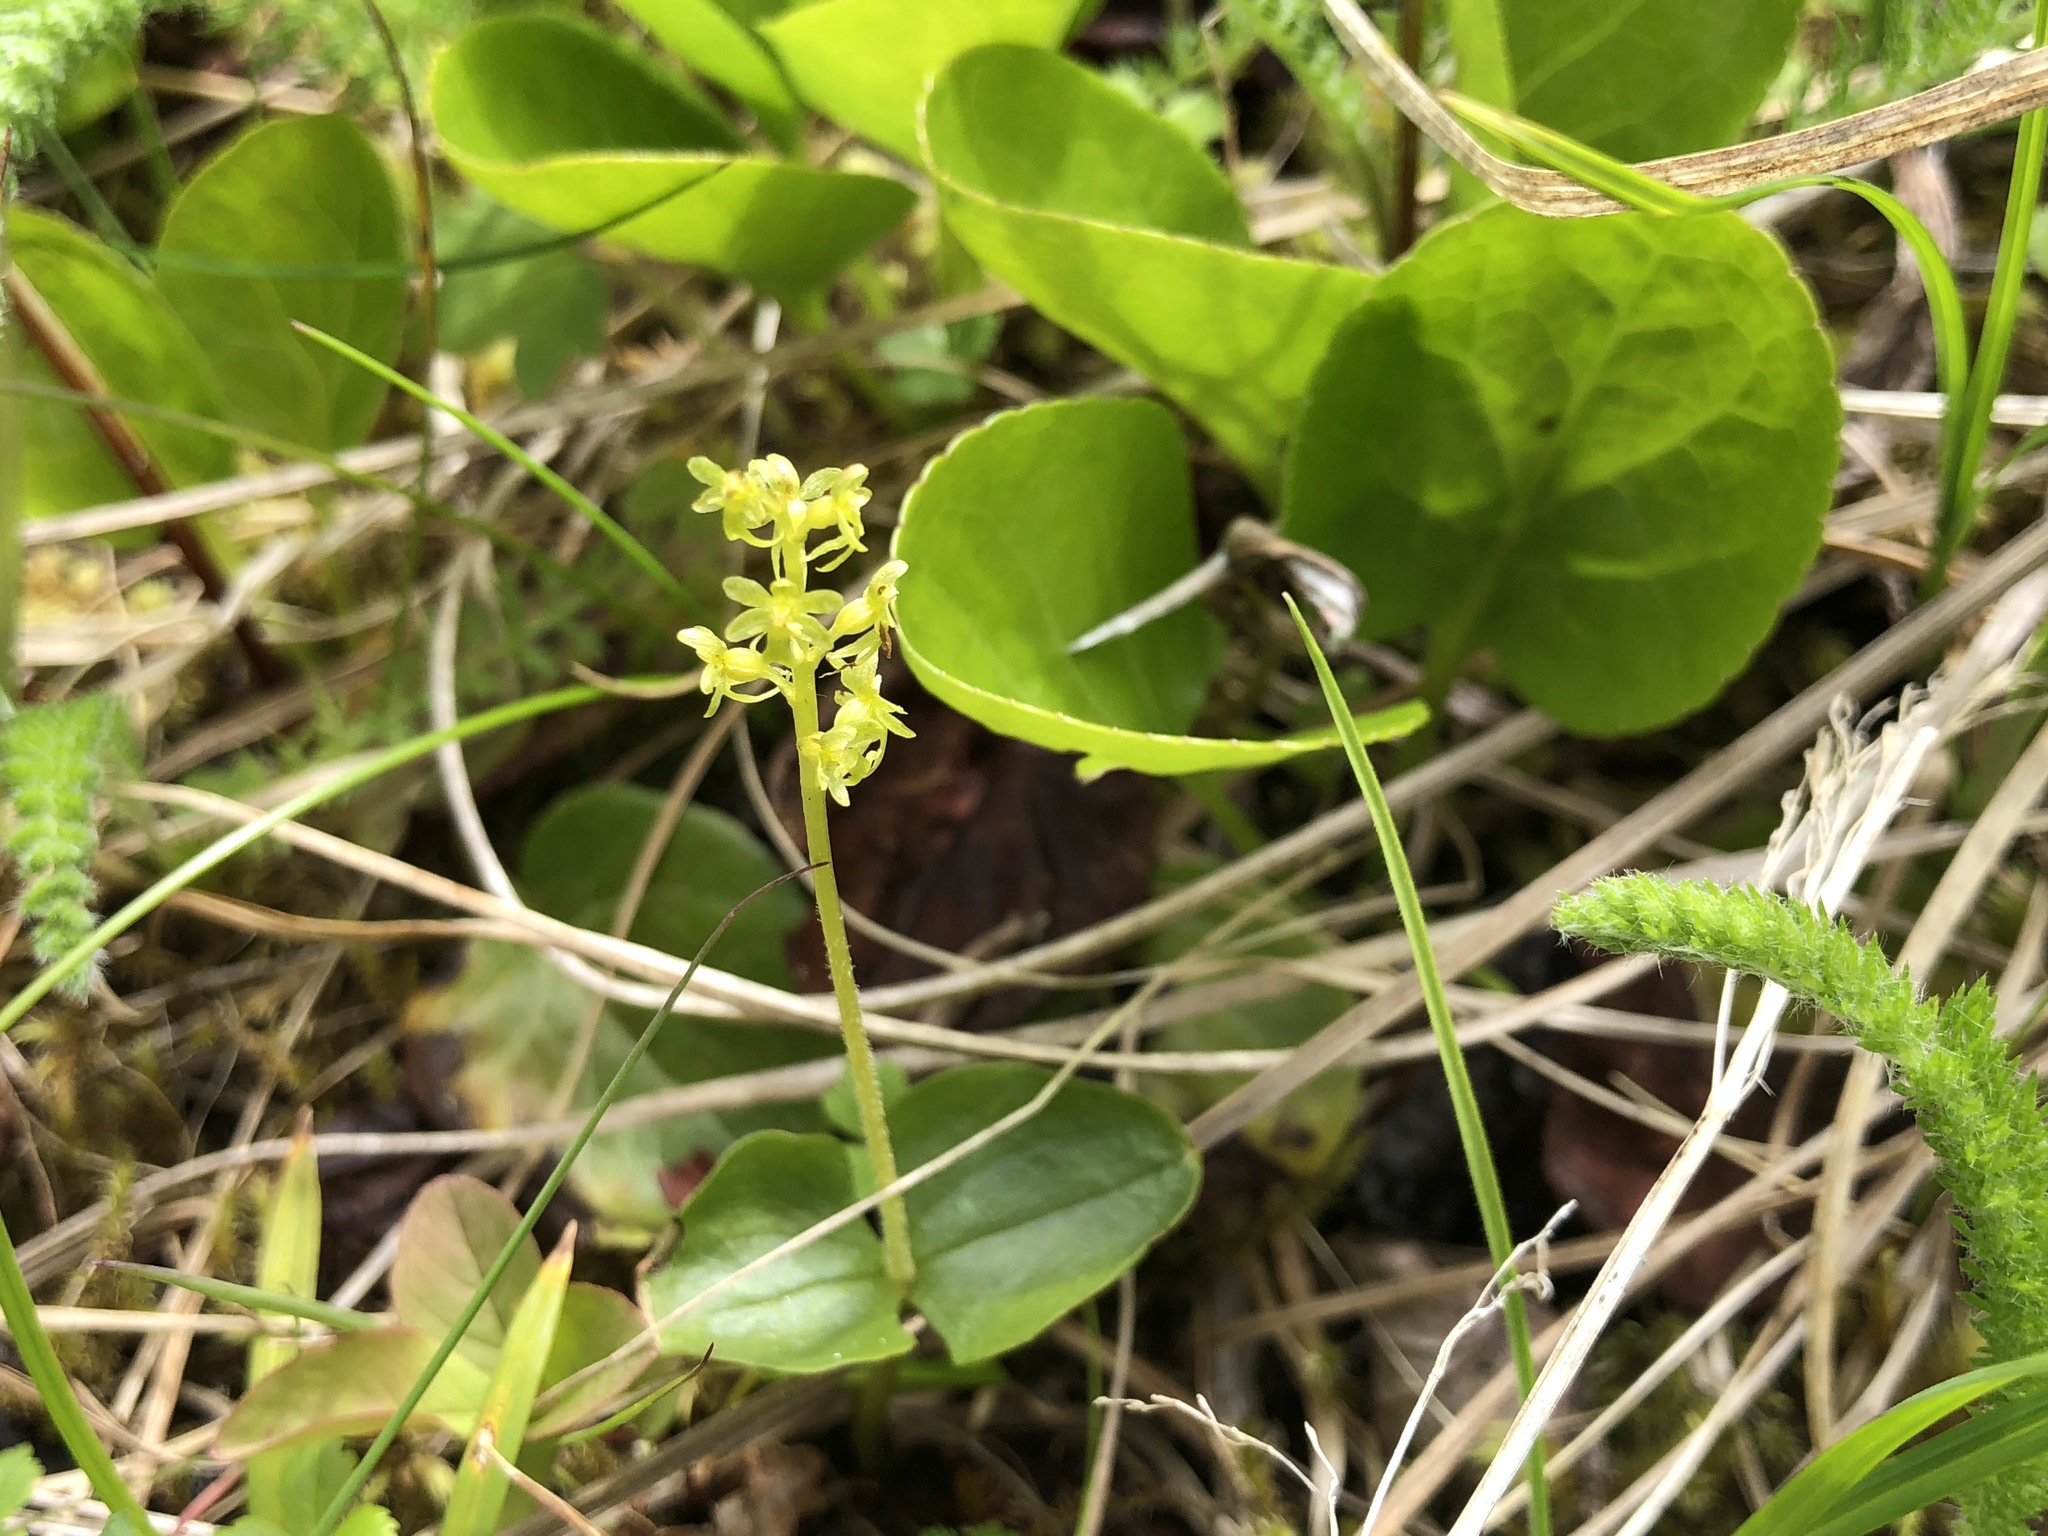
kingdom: Plantae
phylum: Tracheophyta
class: Liliopsida
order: Asparagales
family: Orchidaceae
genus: Neottia
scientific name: Neottia cordata
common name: Lesser twayblade
